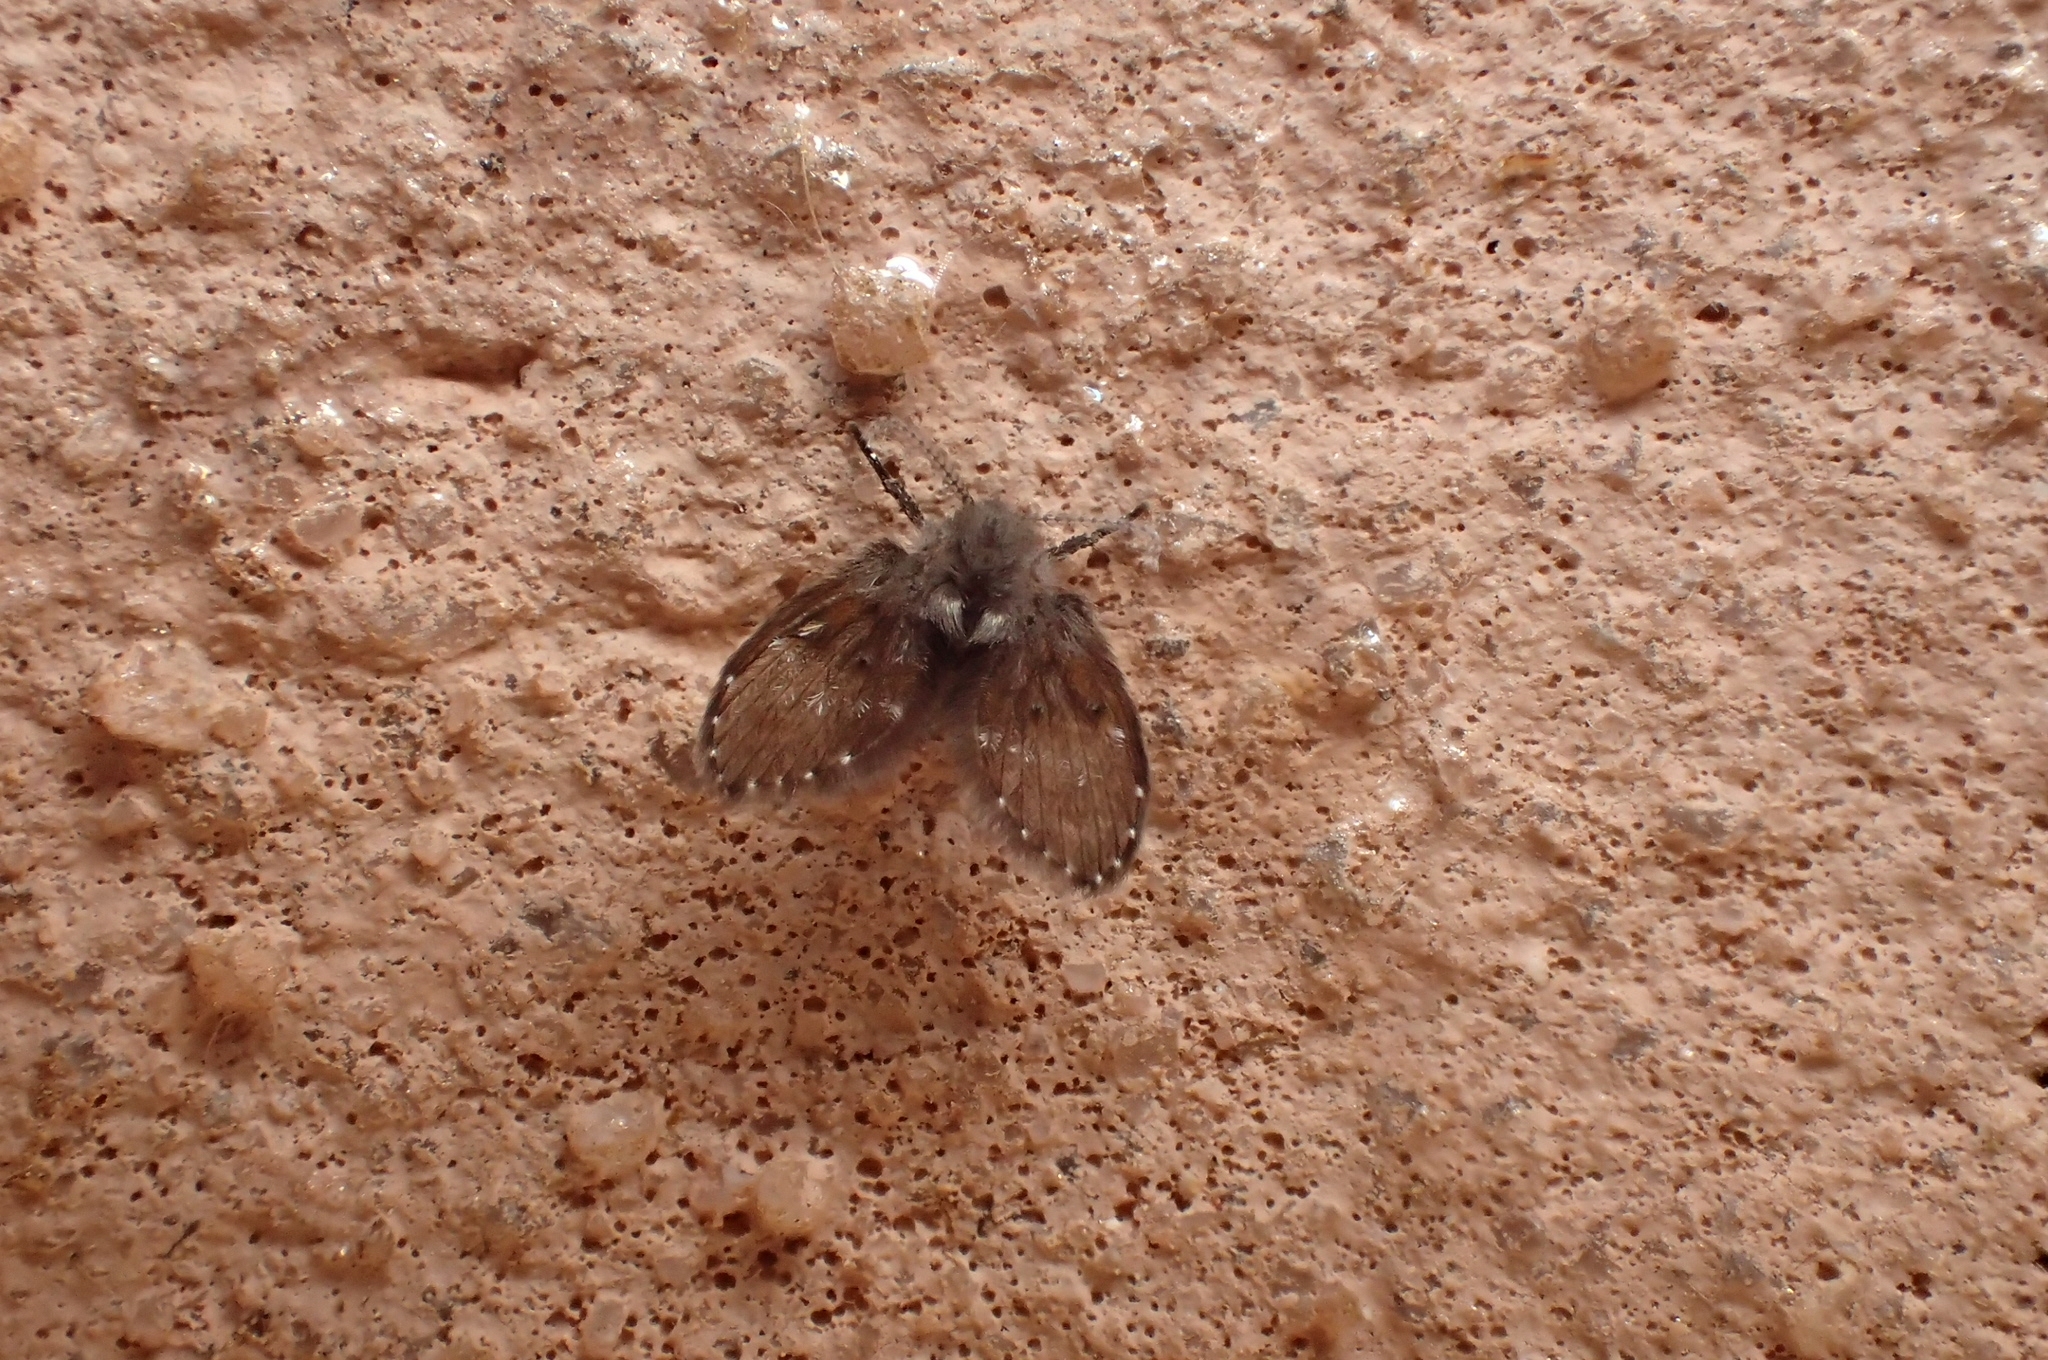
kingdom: Animalia
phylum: Arthropoda
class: Insecta
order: Diptera
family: Psychodidae
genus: Clogmia
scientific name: Clogmia albipunctatus
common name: White-spotted moth fly
